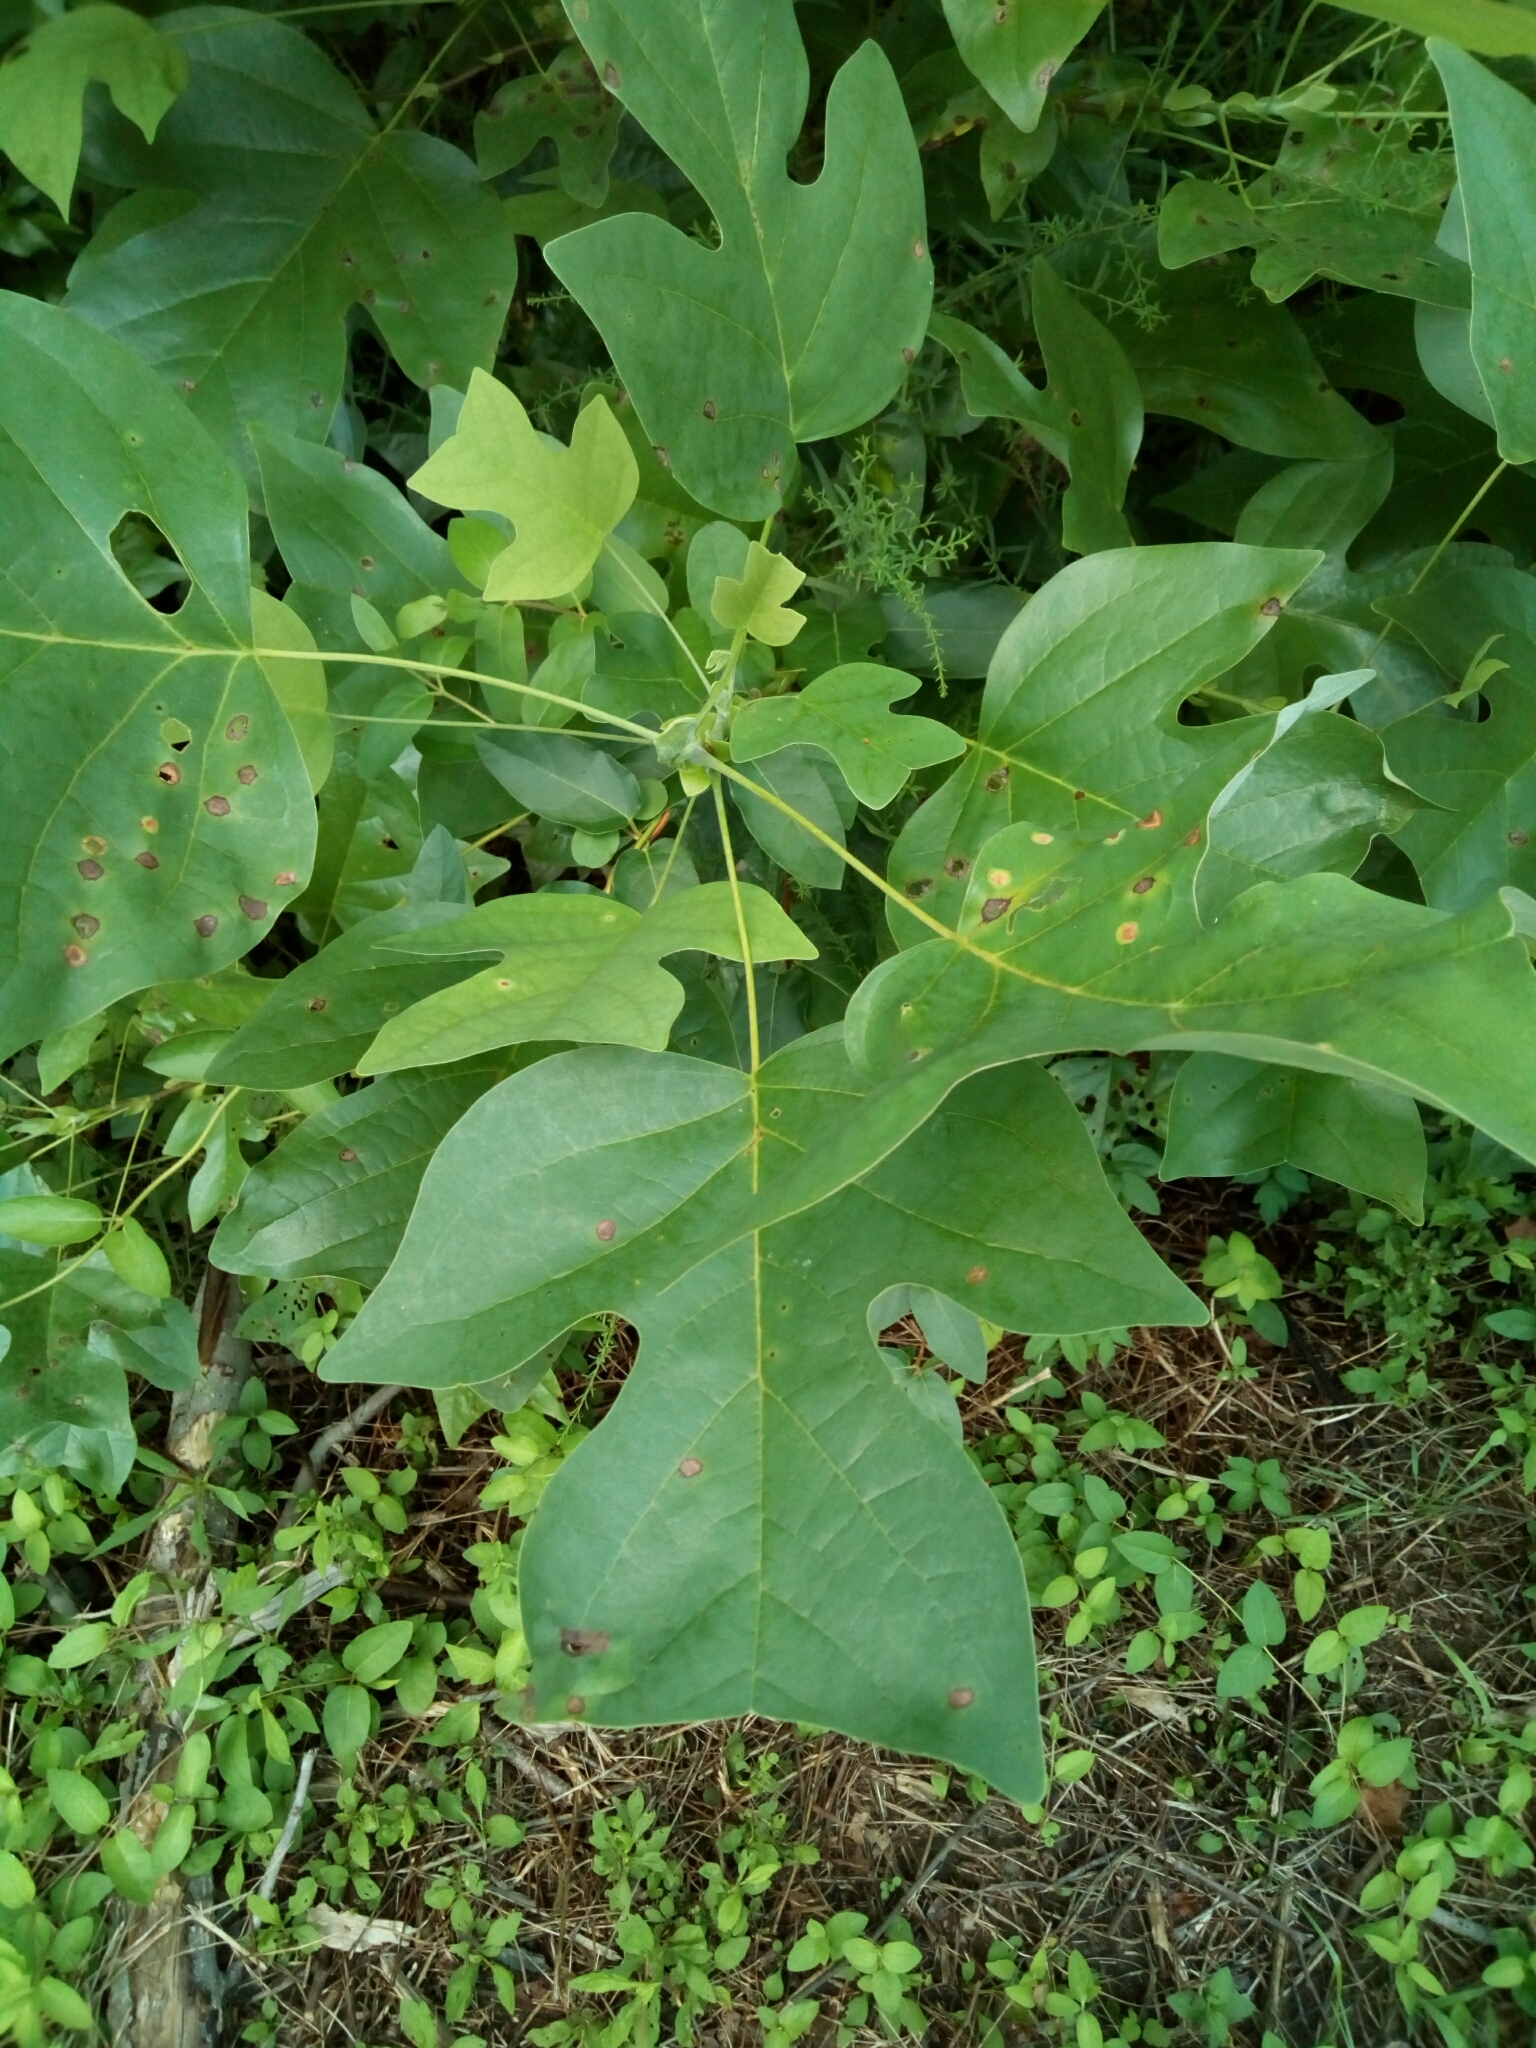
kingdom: Plantae
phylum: Tracheophyta
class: Magnoliopsida
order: Magnoliales
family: Magnoliaceae
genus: Liriodendron
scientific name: Liriodendron tulipifera
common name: Tulip tree
